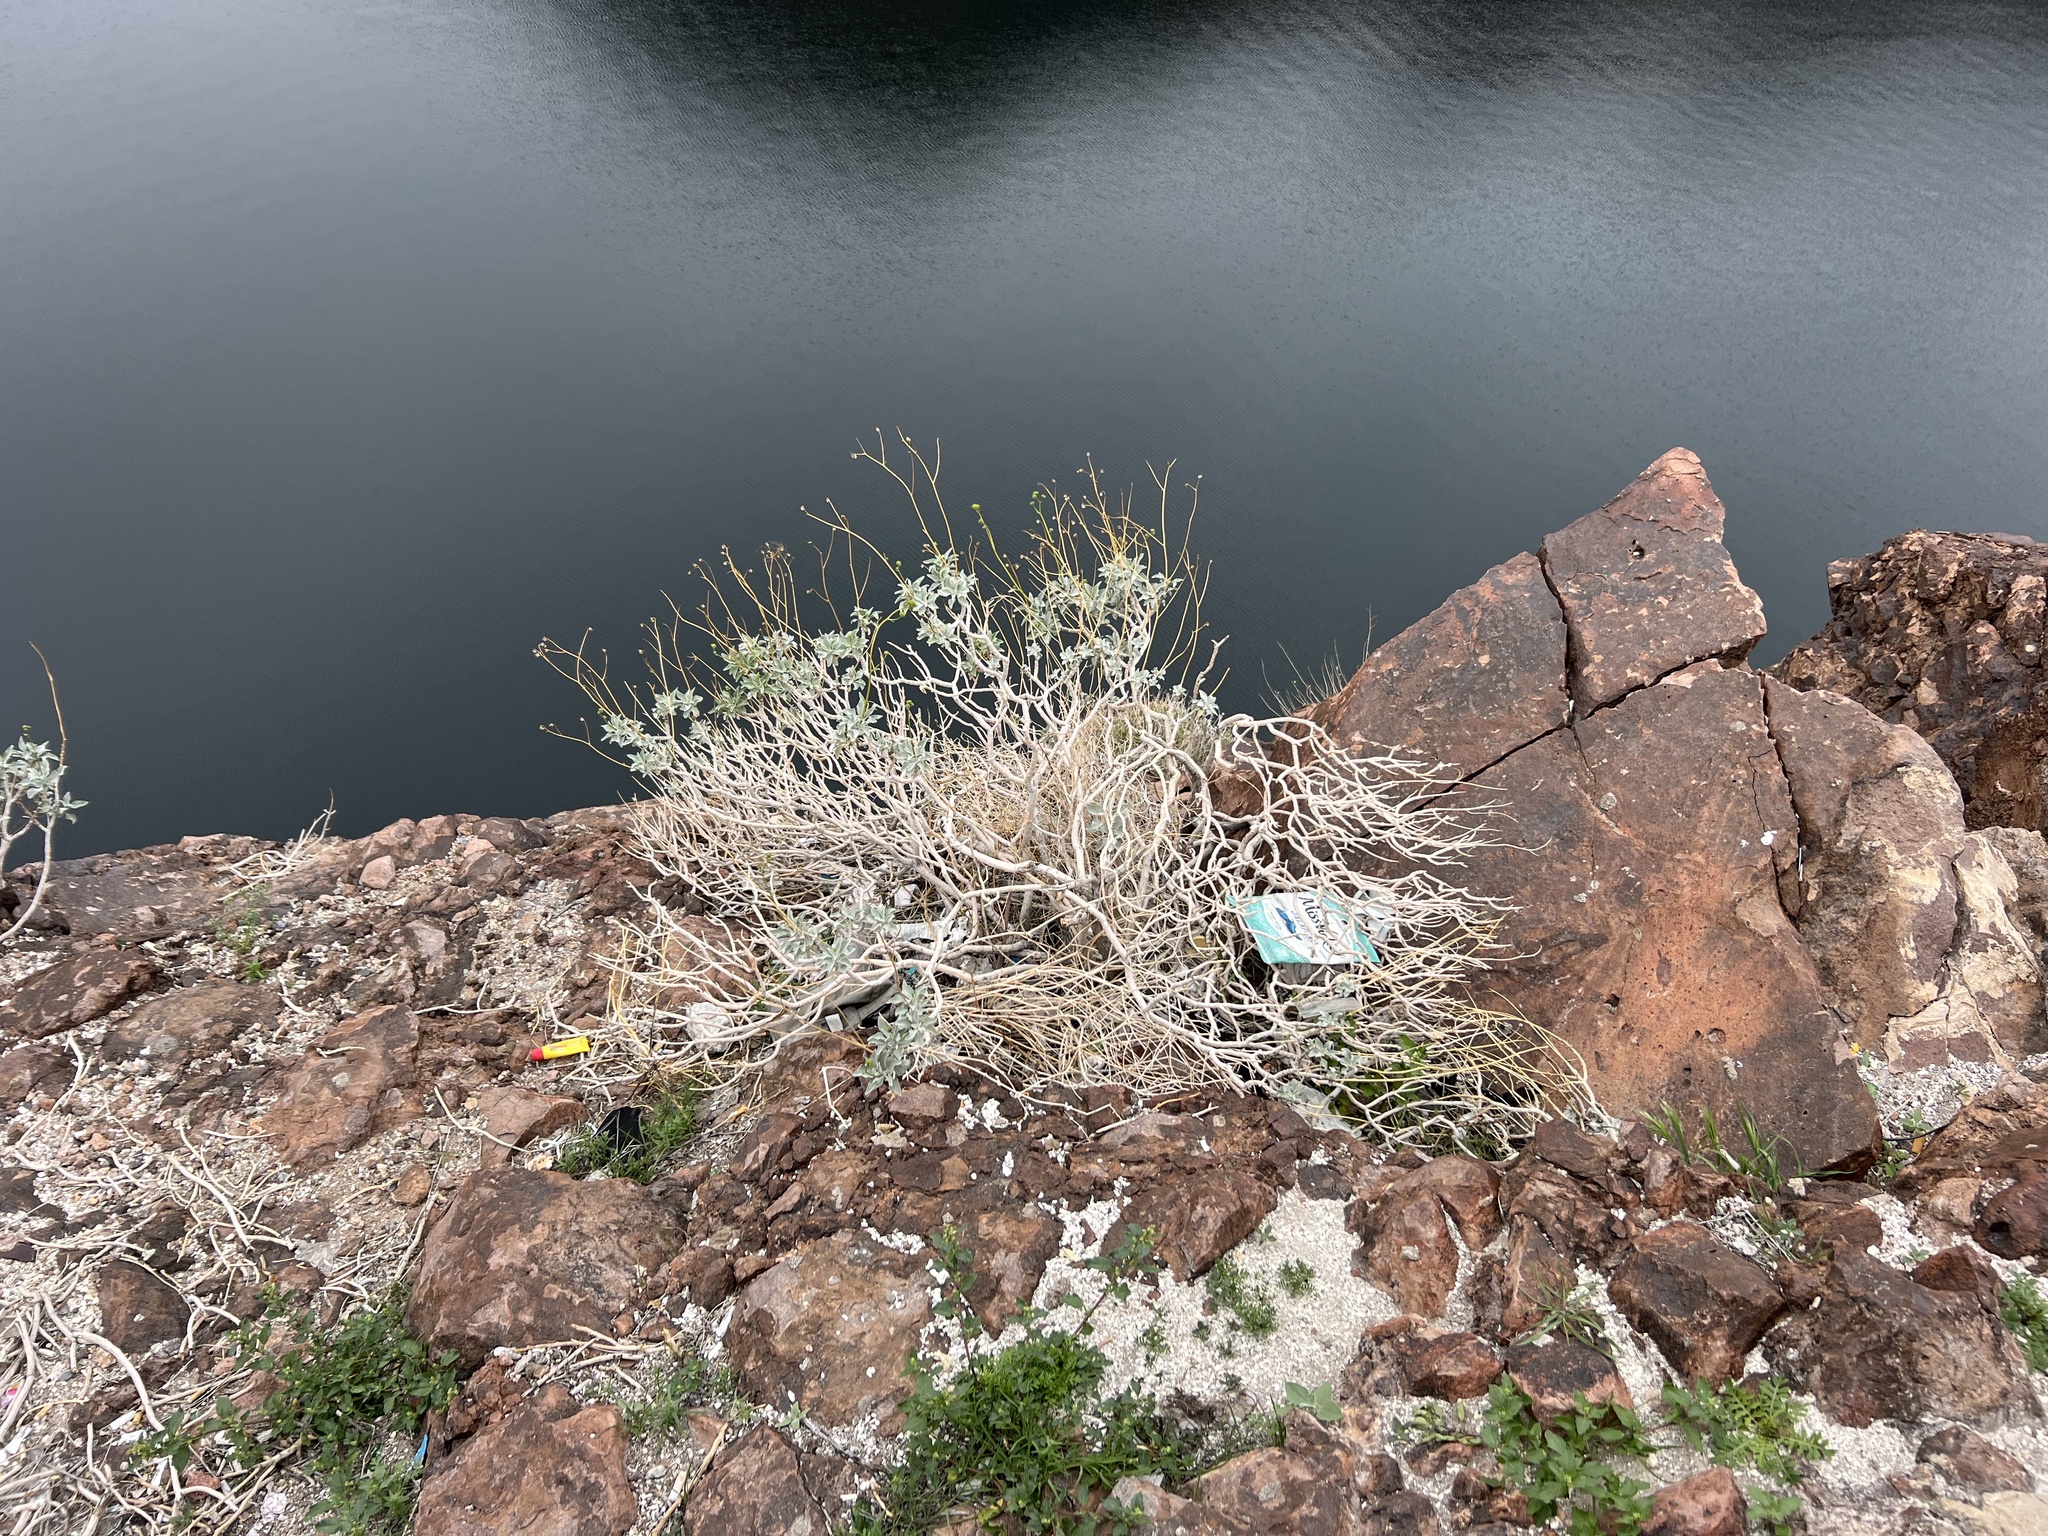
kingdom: Plantae
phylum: Tracheophyta
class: Magnoliopsida
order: Asterales
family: Asteraceae
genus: Encelia
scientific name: Encelia farinosa
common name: Brittlebush
